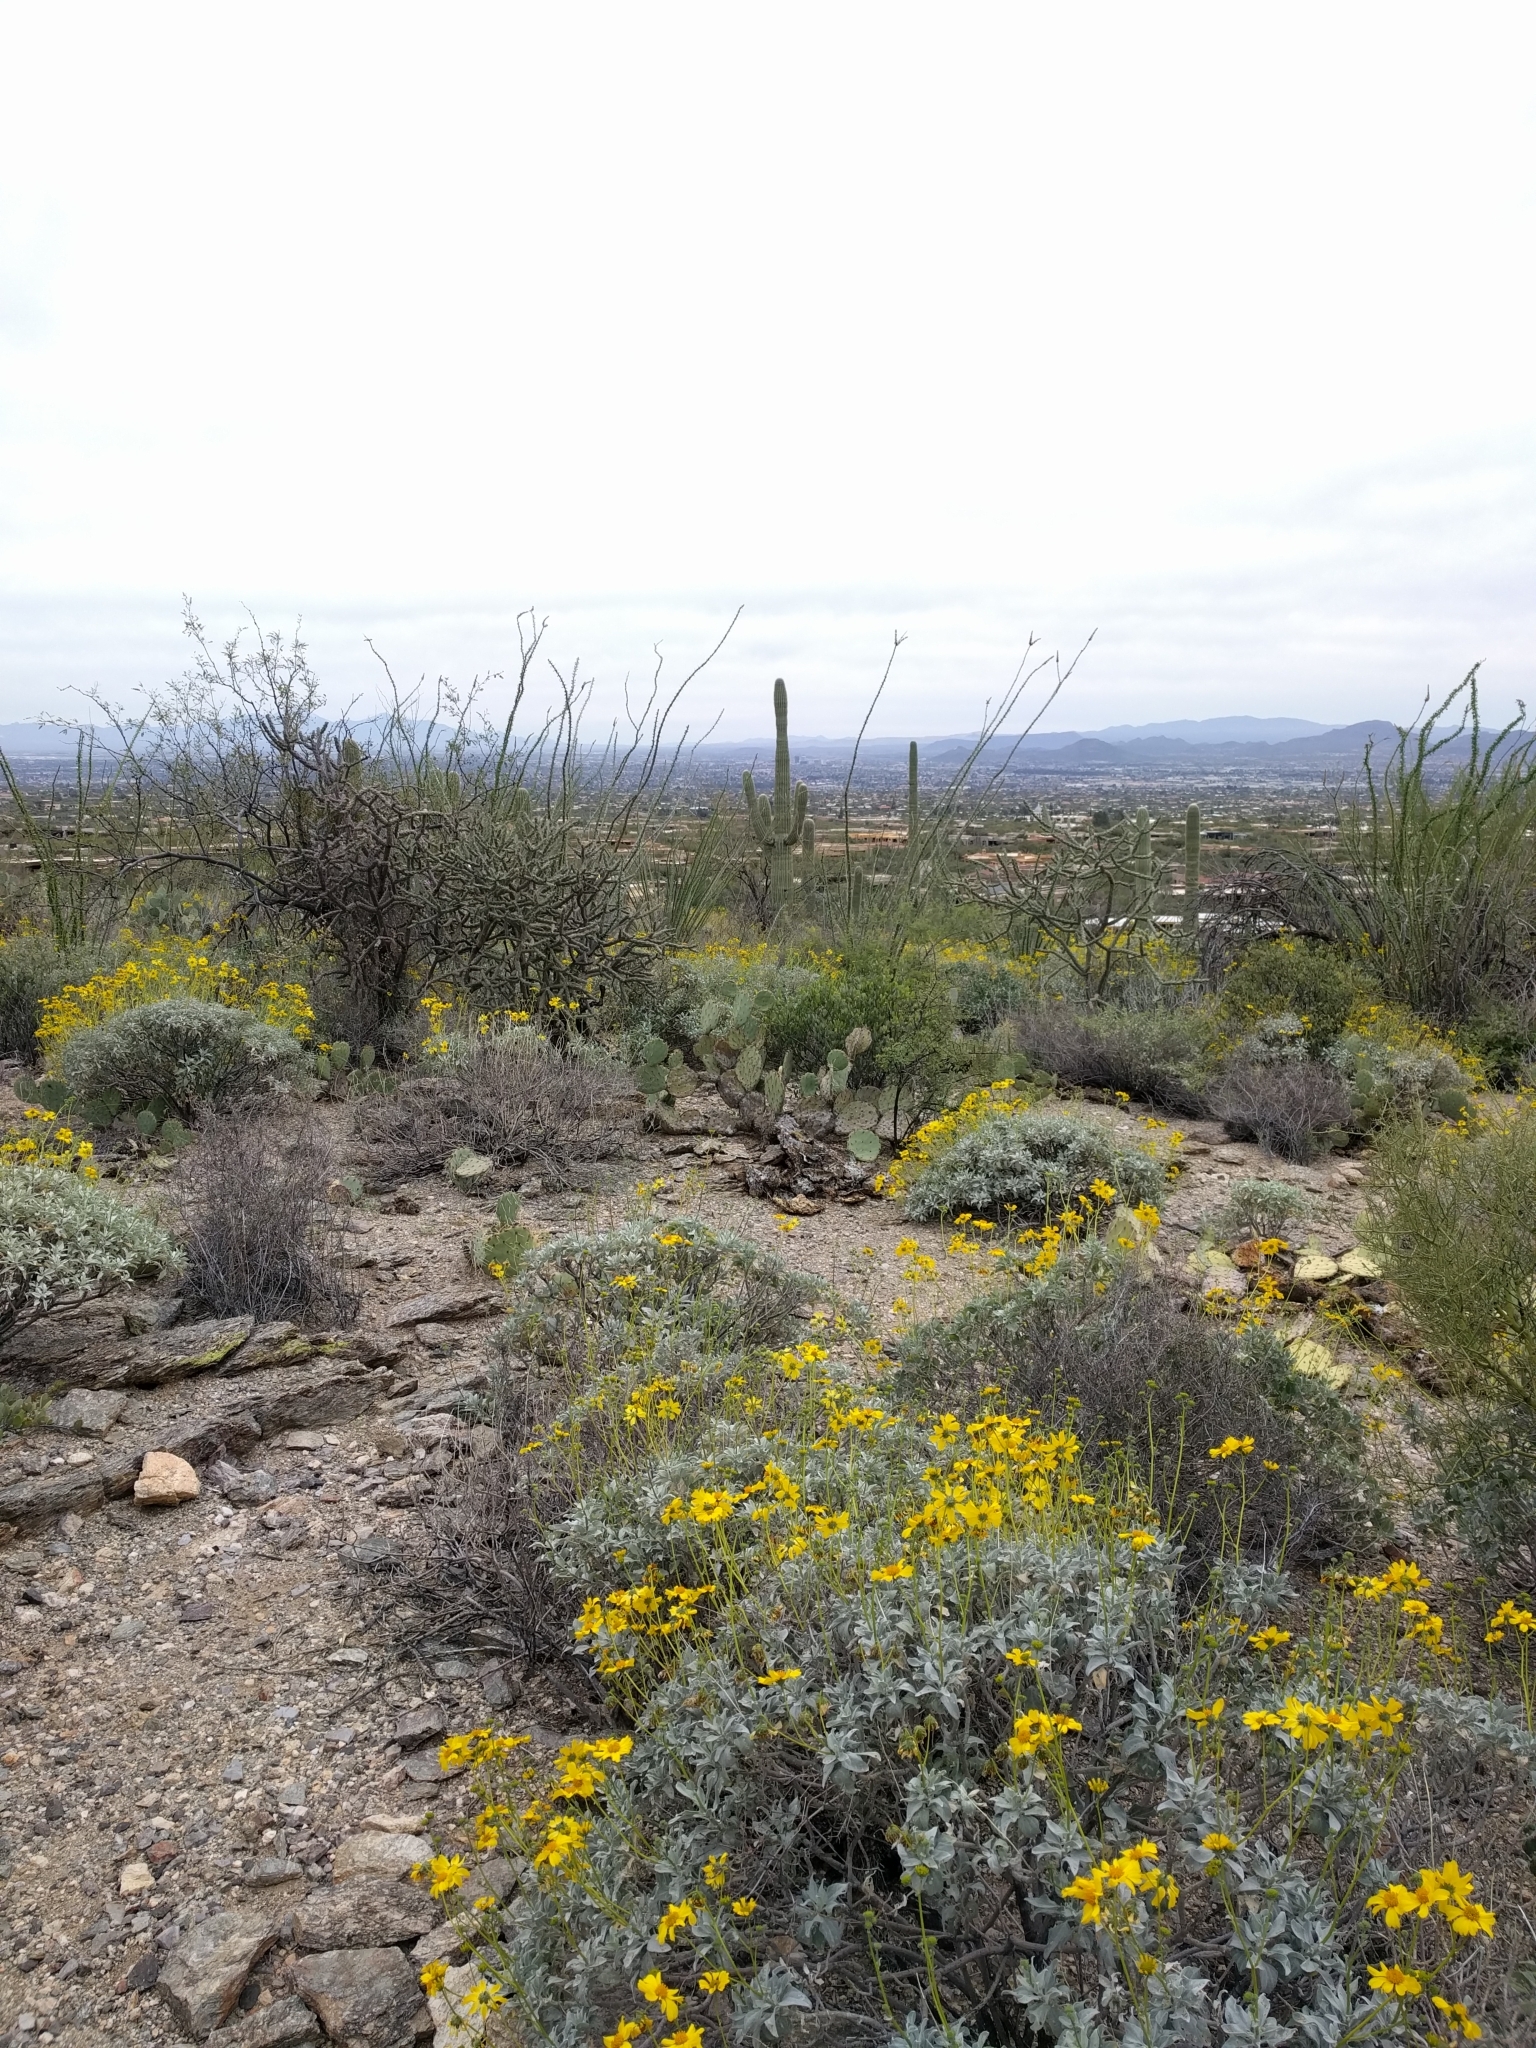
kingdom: Plantae
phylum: Tracheophyta
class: Magnoliopsida
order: Asterales
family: Asteraceae
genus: Encelia
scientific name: Encelia farinosa
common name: Brittlebush
